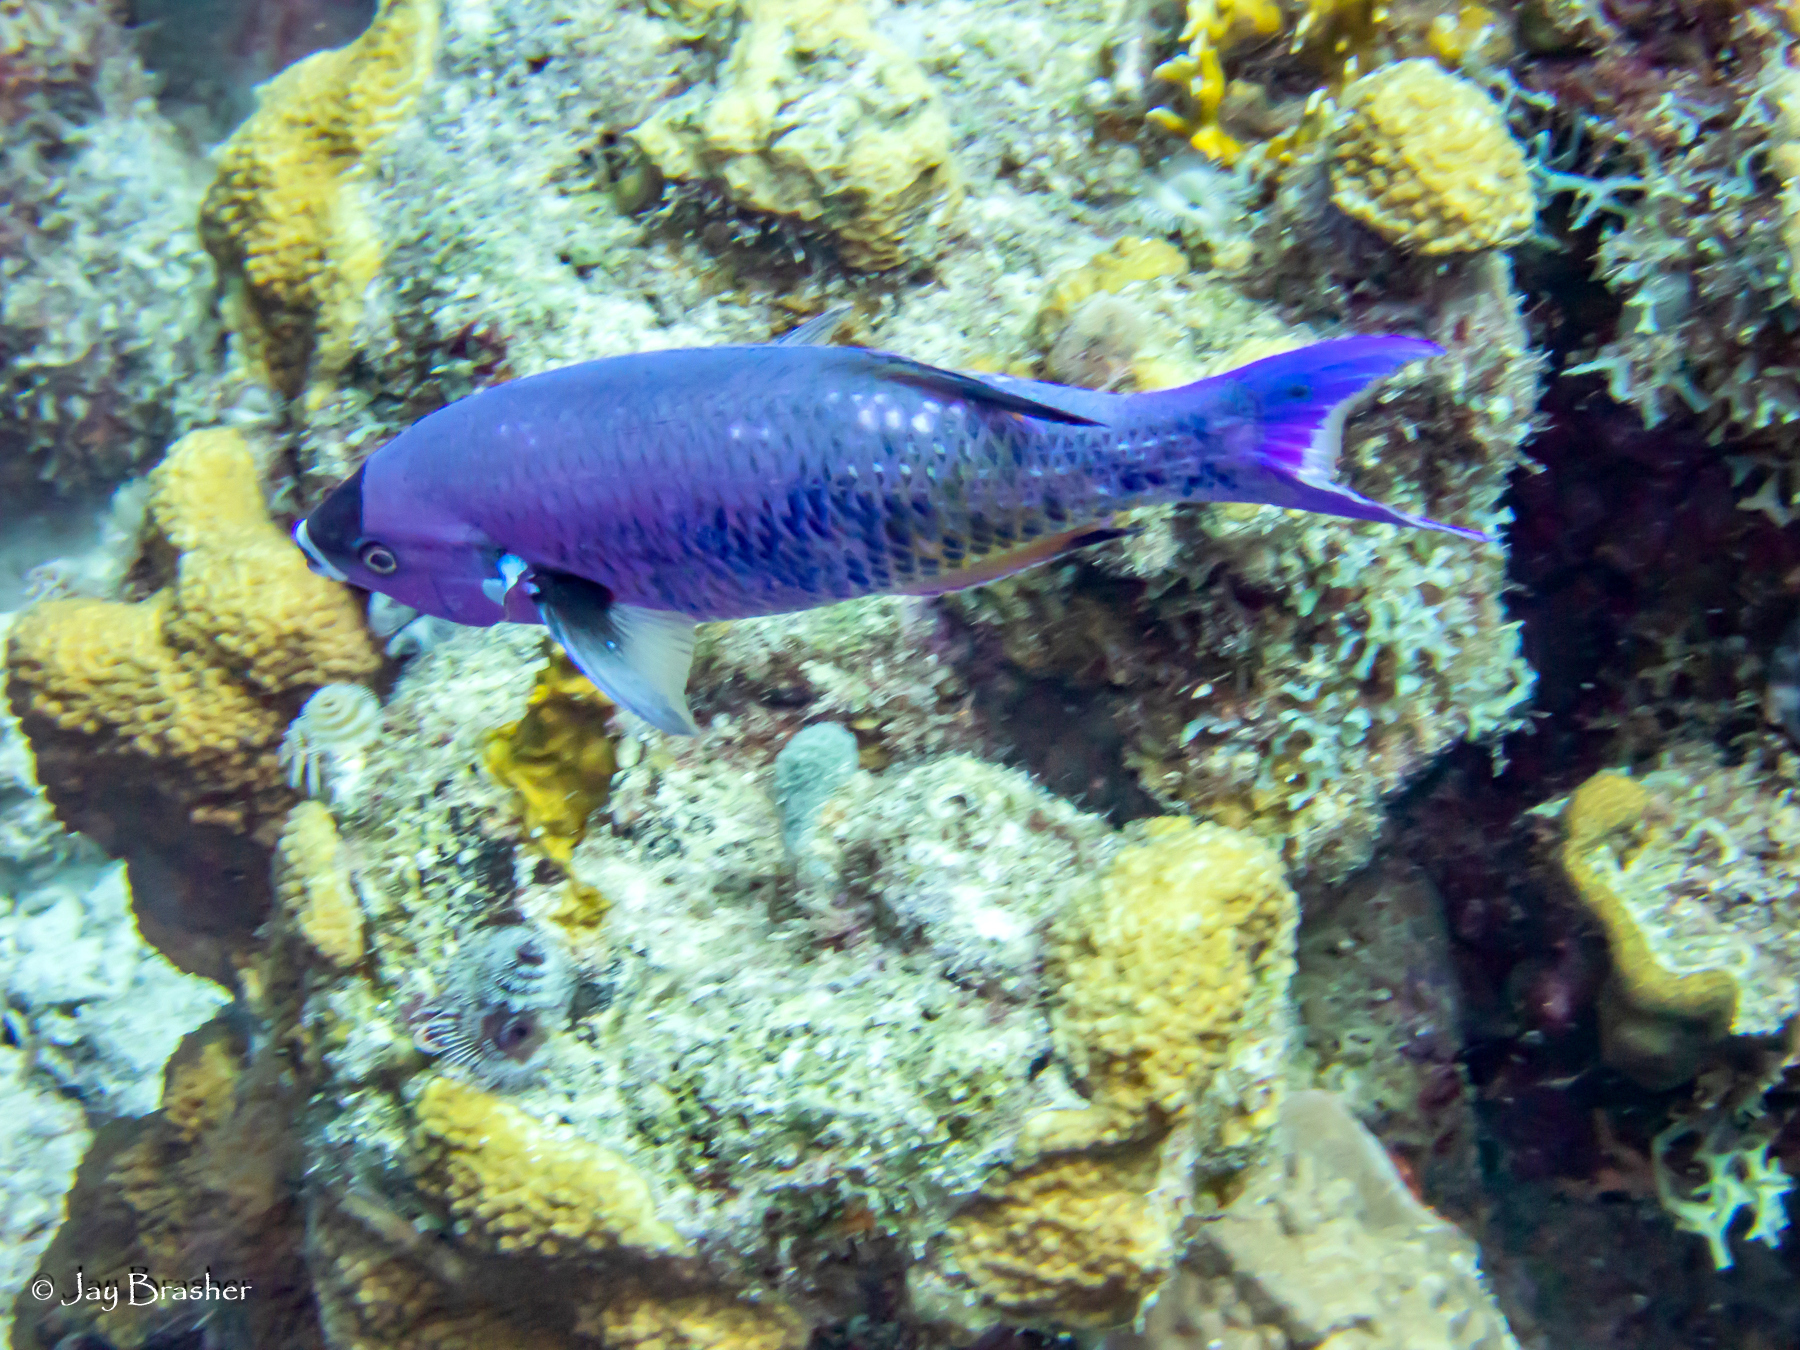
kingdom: Animalia
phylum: Chordata
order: Perciformes
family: Labridae
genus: Bodianus
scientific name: Bodianus
